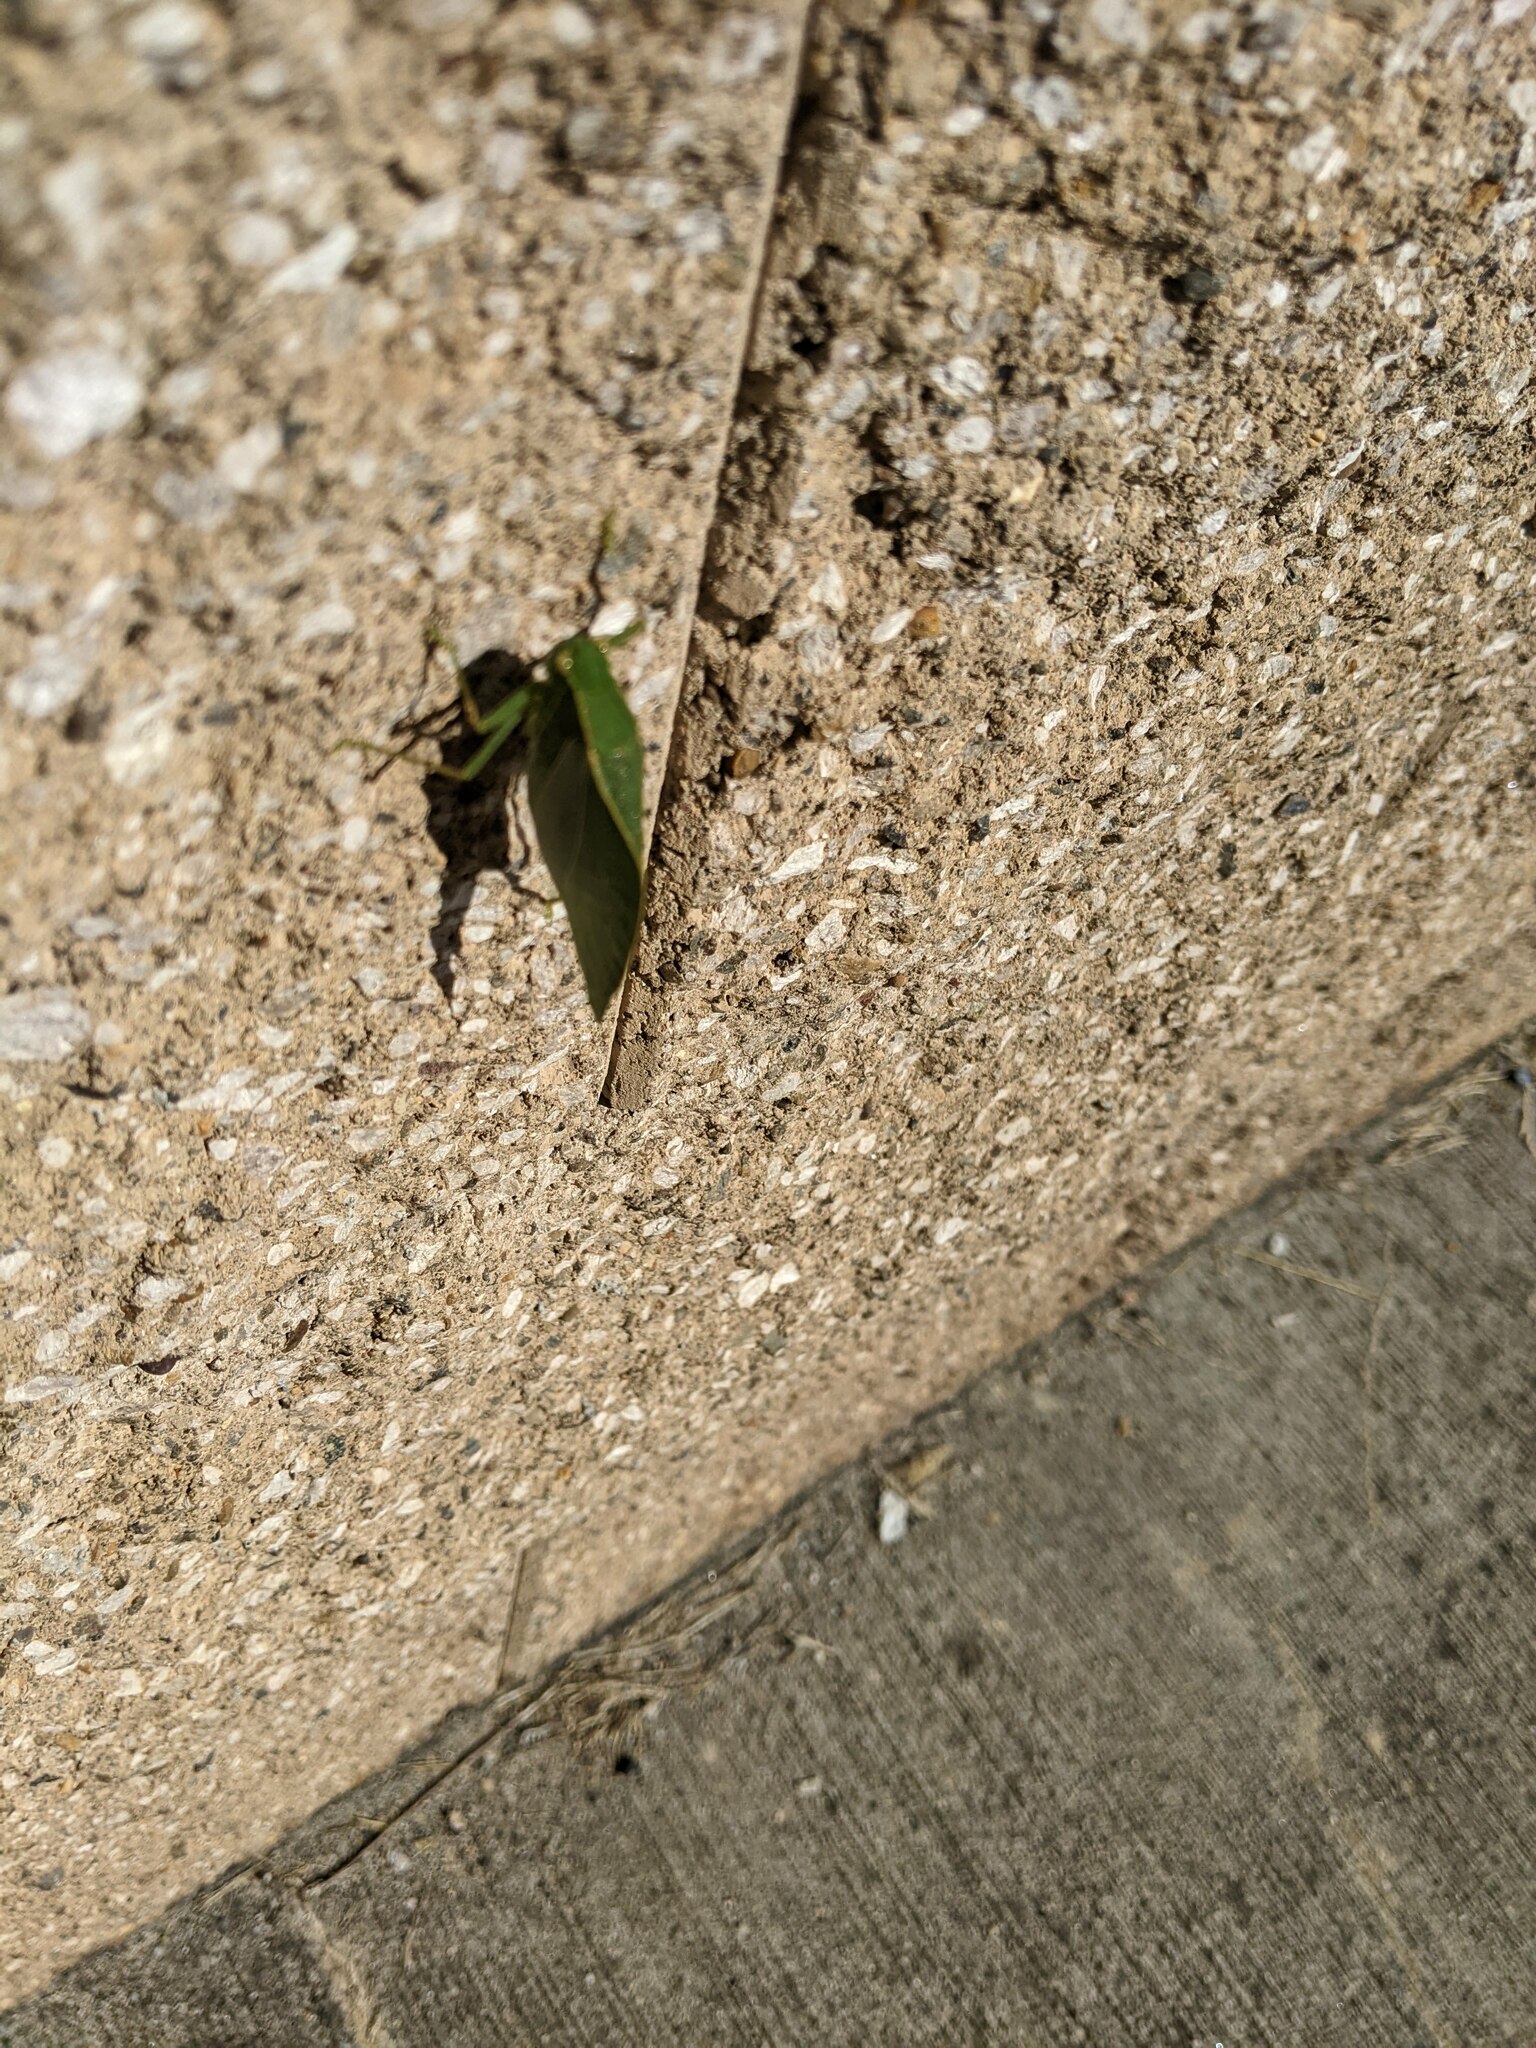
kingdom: Animalia
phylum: Arthropoda
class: Insecta
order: Orthoptera
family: Tettigoniidae
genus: Microcentrum
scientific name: Microcentrum retinerve
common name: Angular-winged katydid
